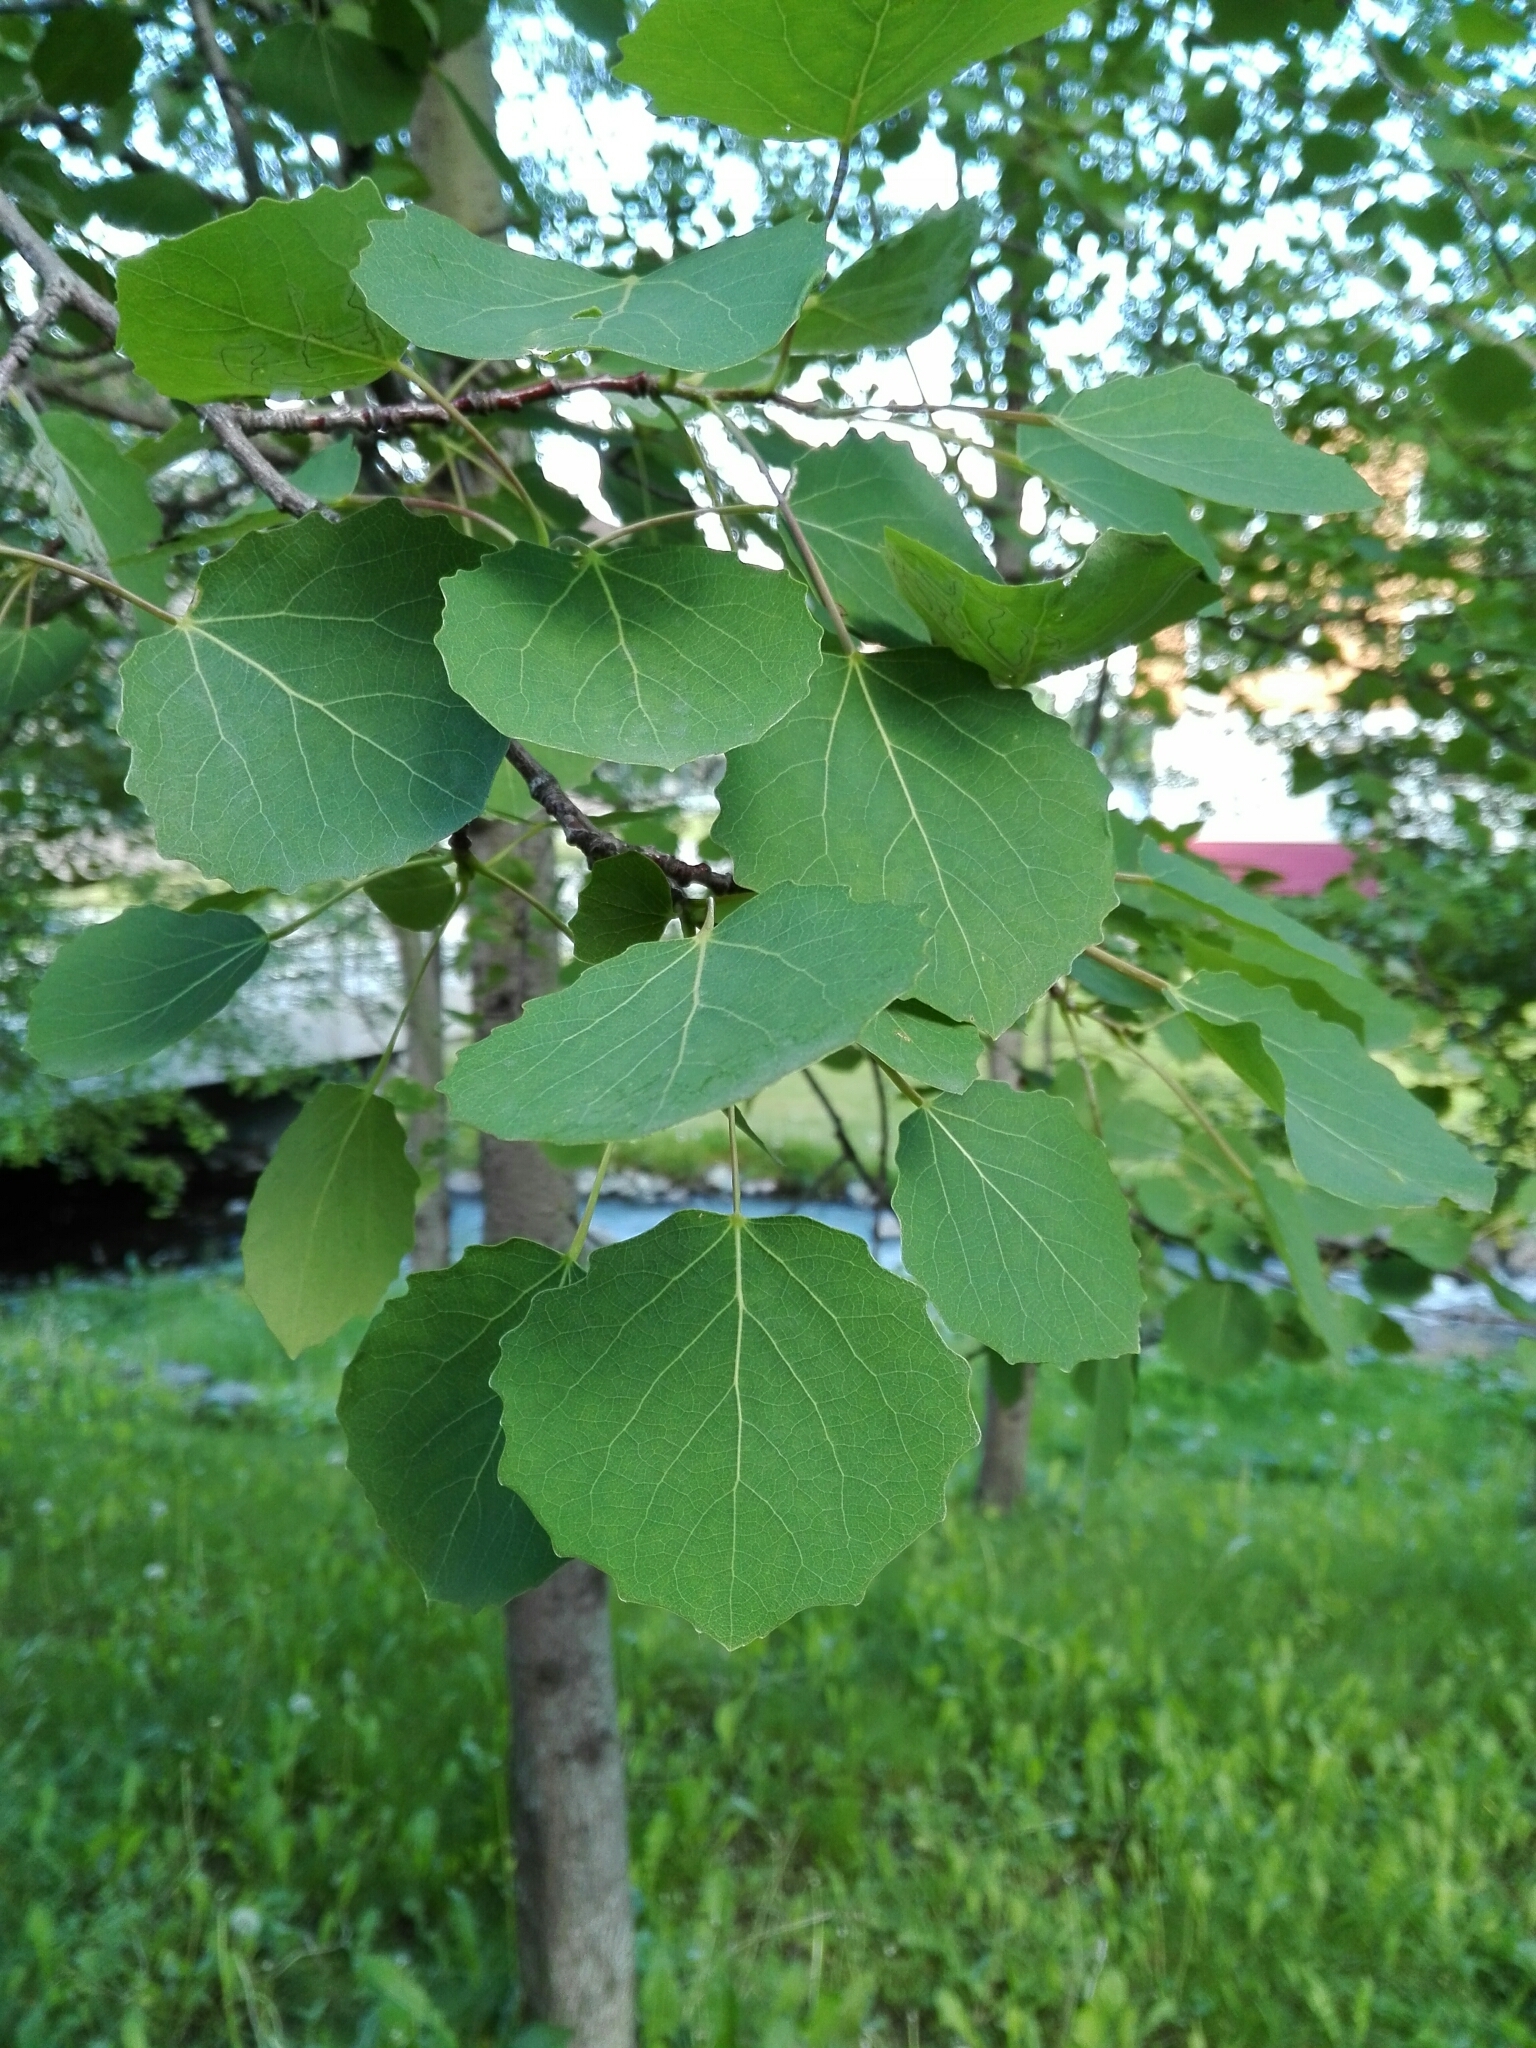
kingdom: Plantae
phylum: Tracheophyta
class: Magnoliopsida
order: Malpighiales
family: Salicaceae
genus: Populus
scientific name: Populus tremula
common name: European aspen
